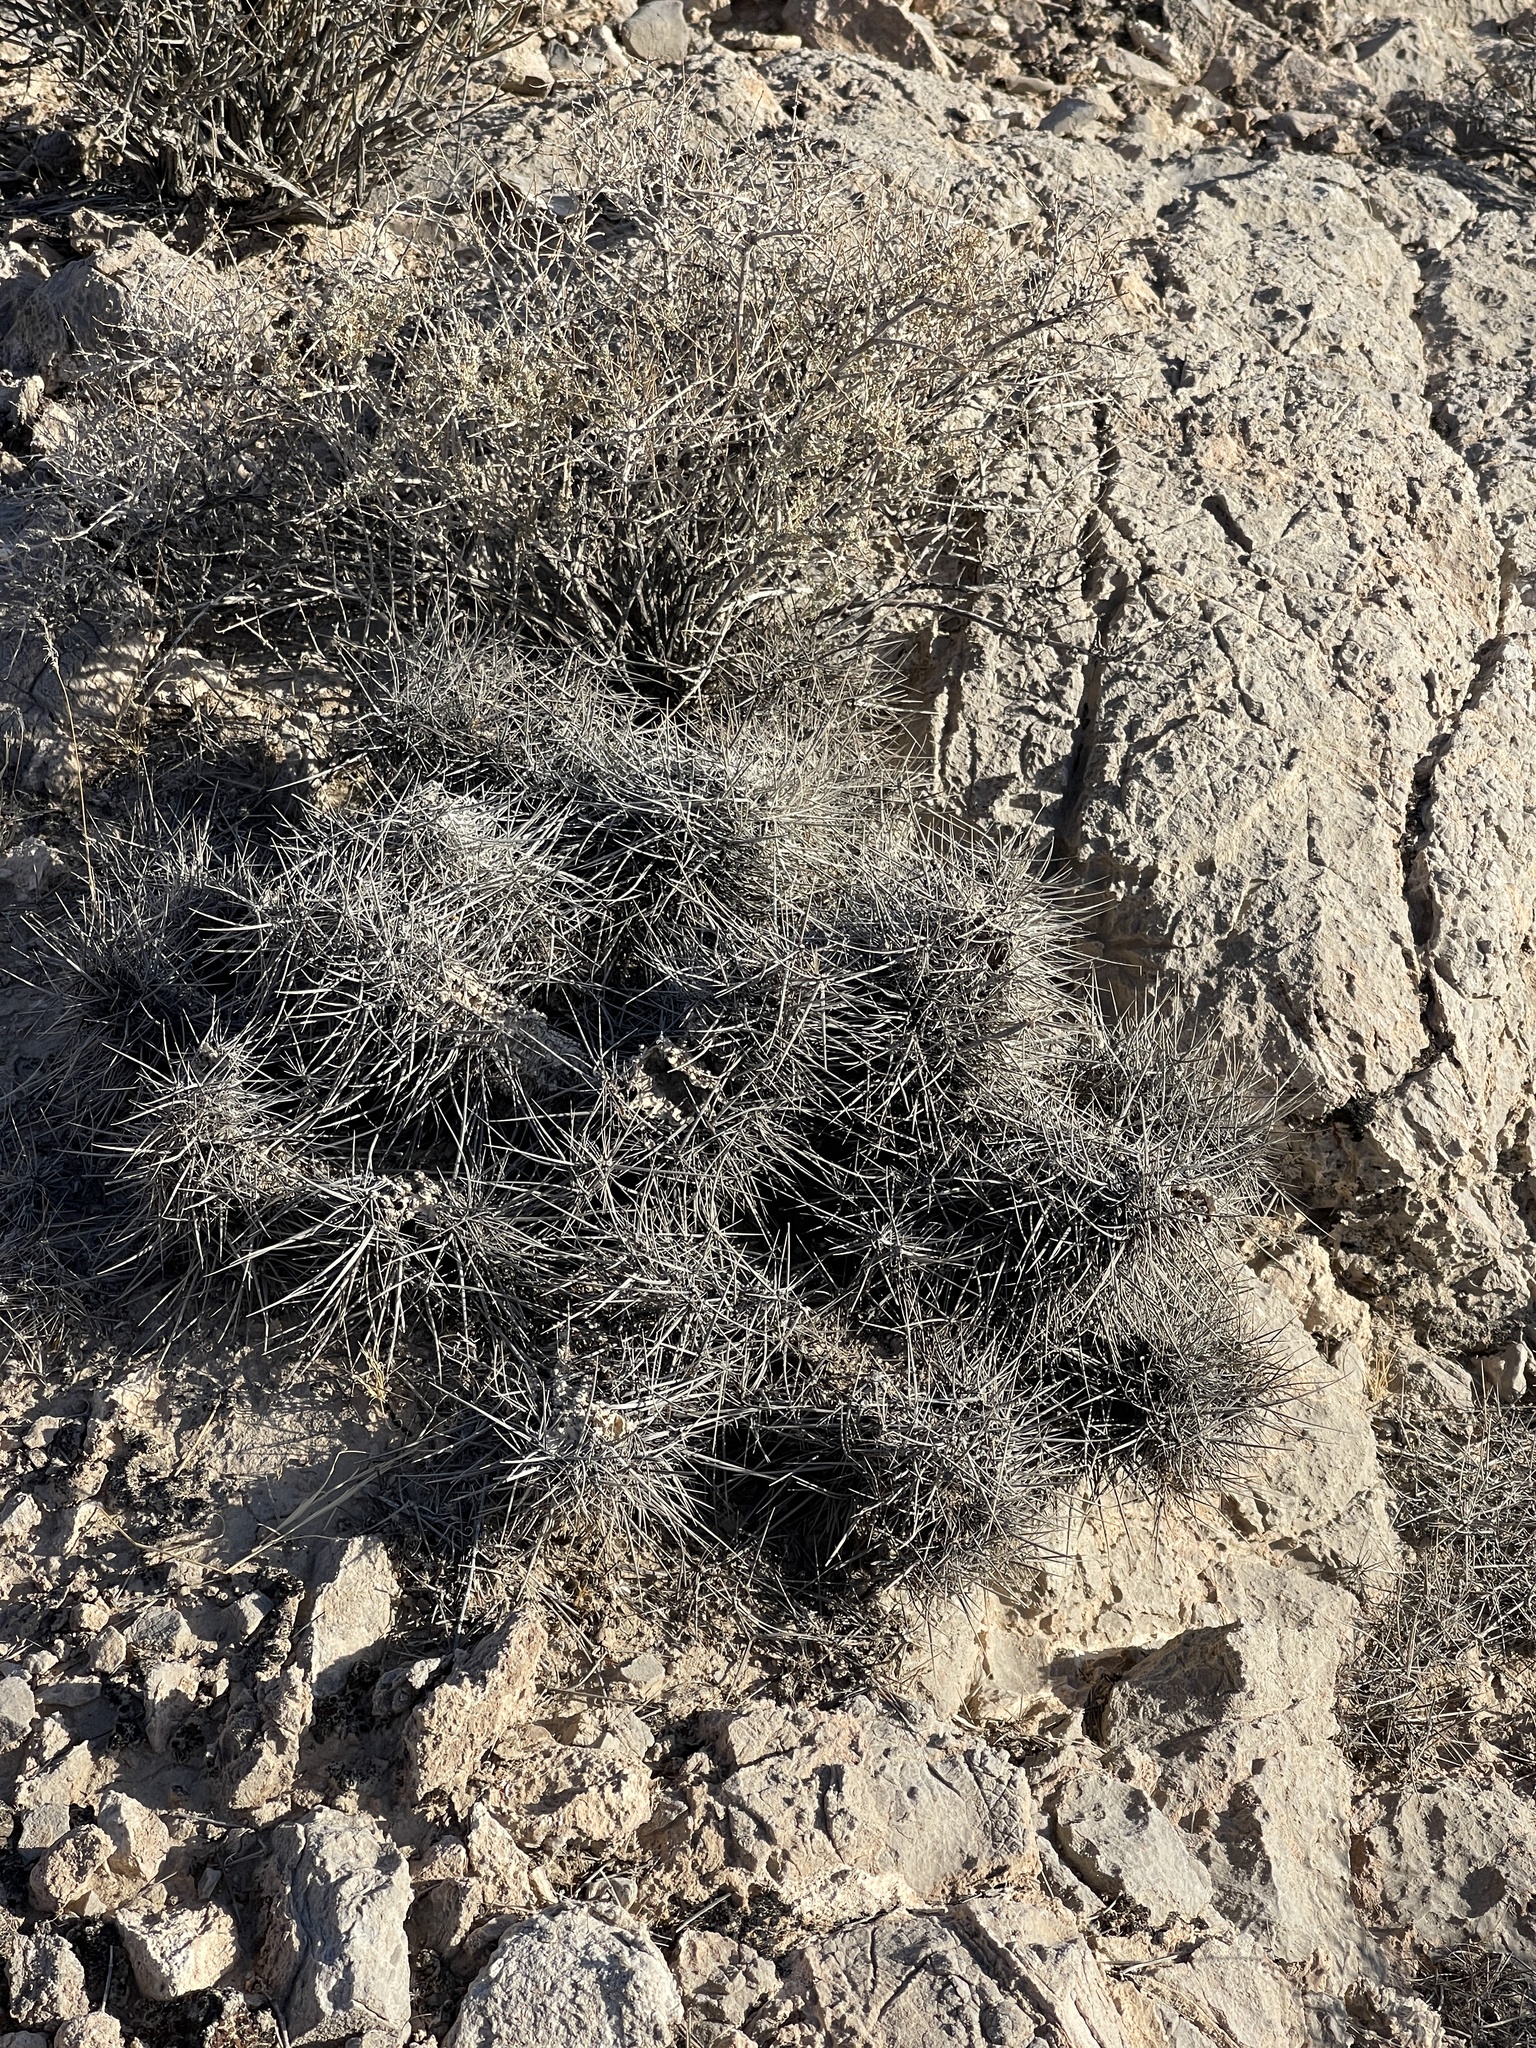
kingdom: Plantae
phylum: Tracheophyta
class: Magnoliopsida
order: Caryophyllales
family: Cactaceae
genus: Echinocereus
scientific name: Echinocereus engelmannii
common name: Engelmann's hedgehog cactus
